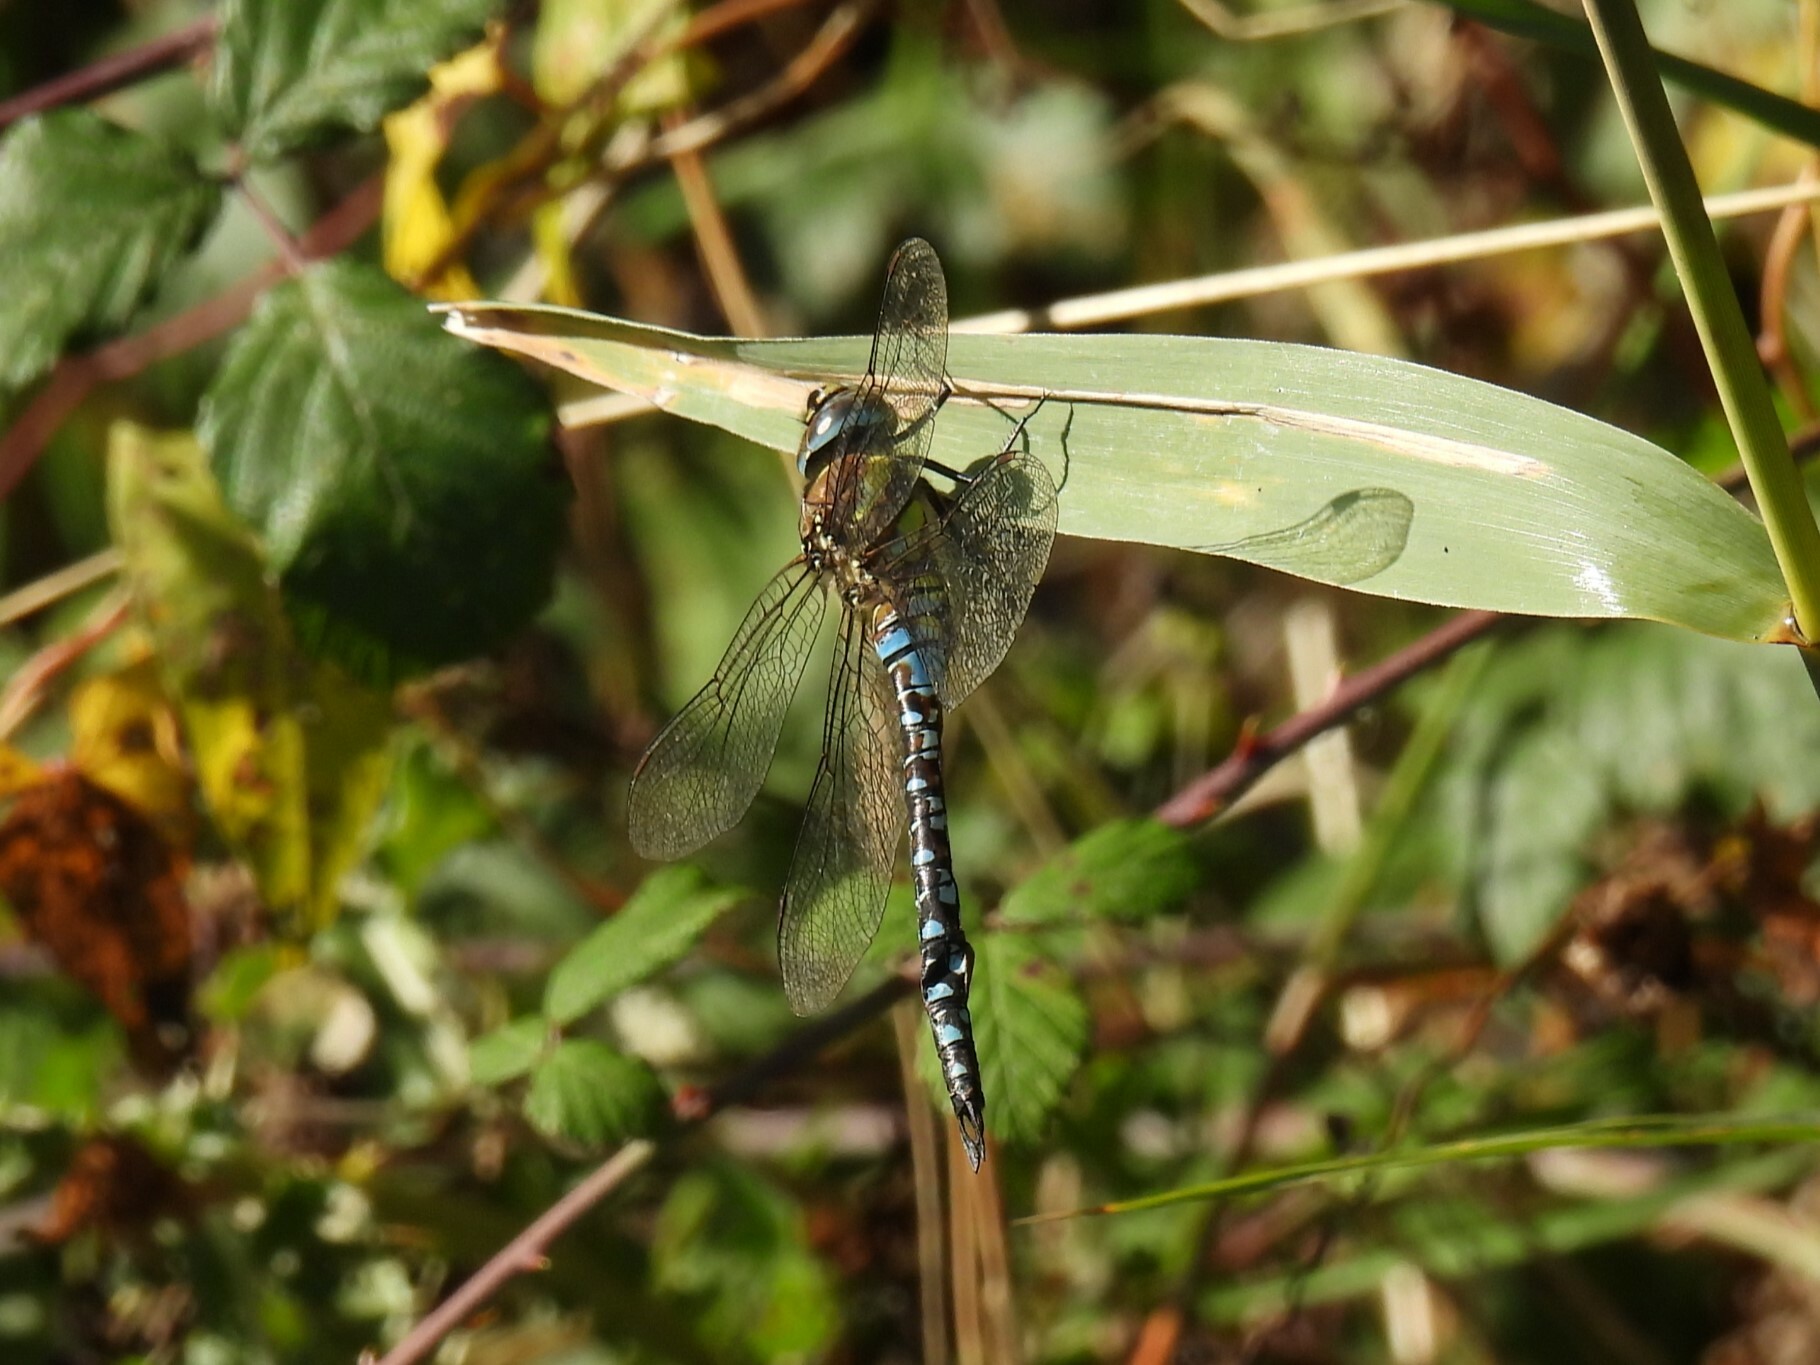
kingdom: Animalia
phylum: Arthropoda
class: Insecta
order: Odonata
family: Aeshnidae
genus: Aeshna
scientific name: Aeshna mixta
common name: Migrant hawker
